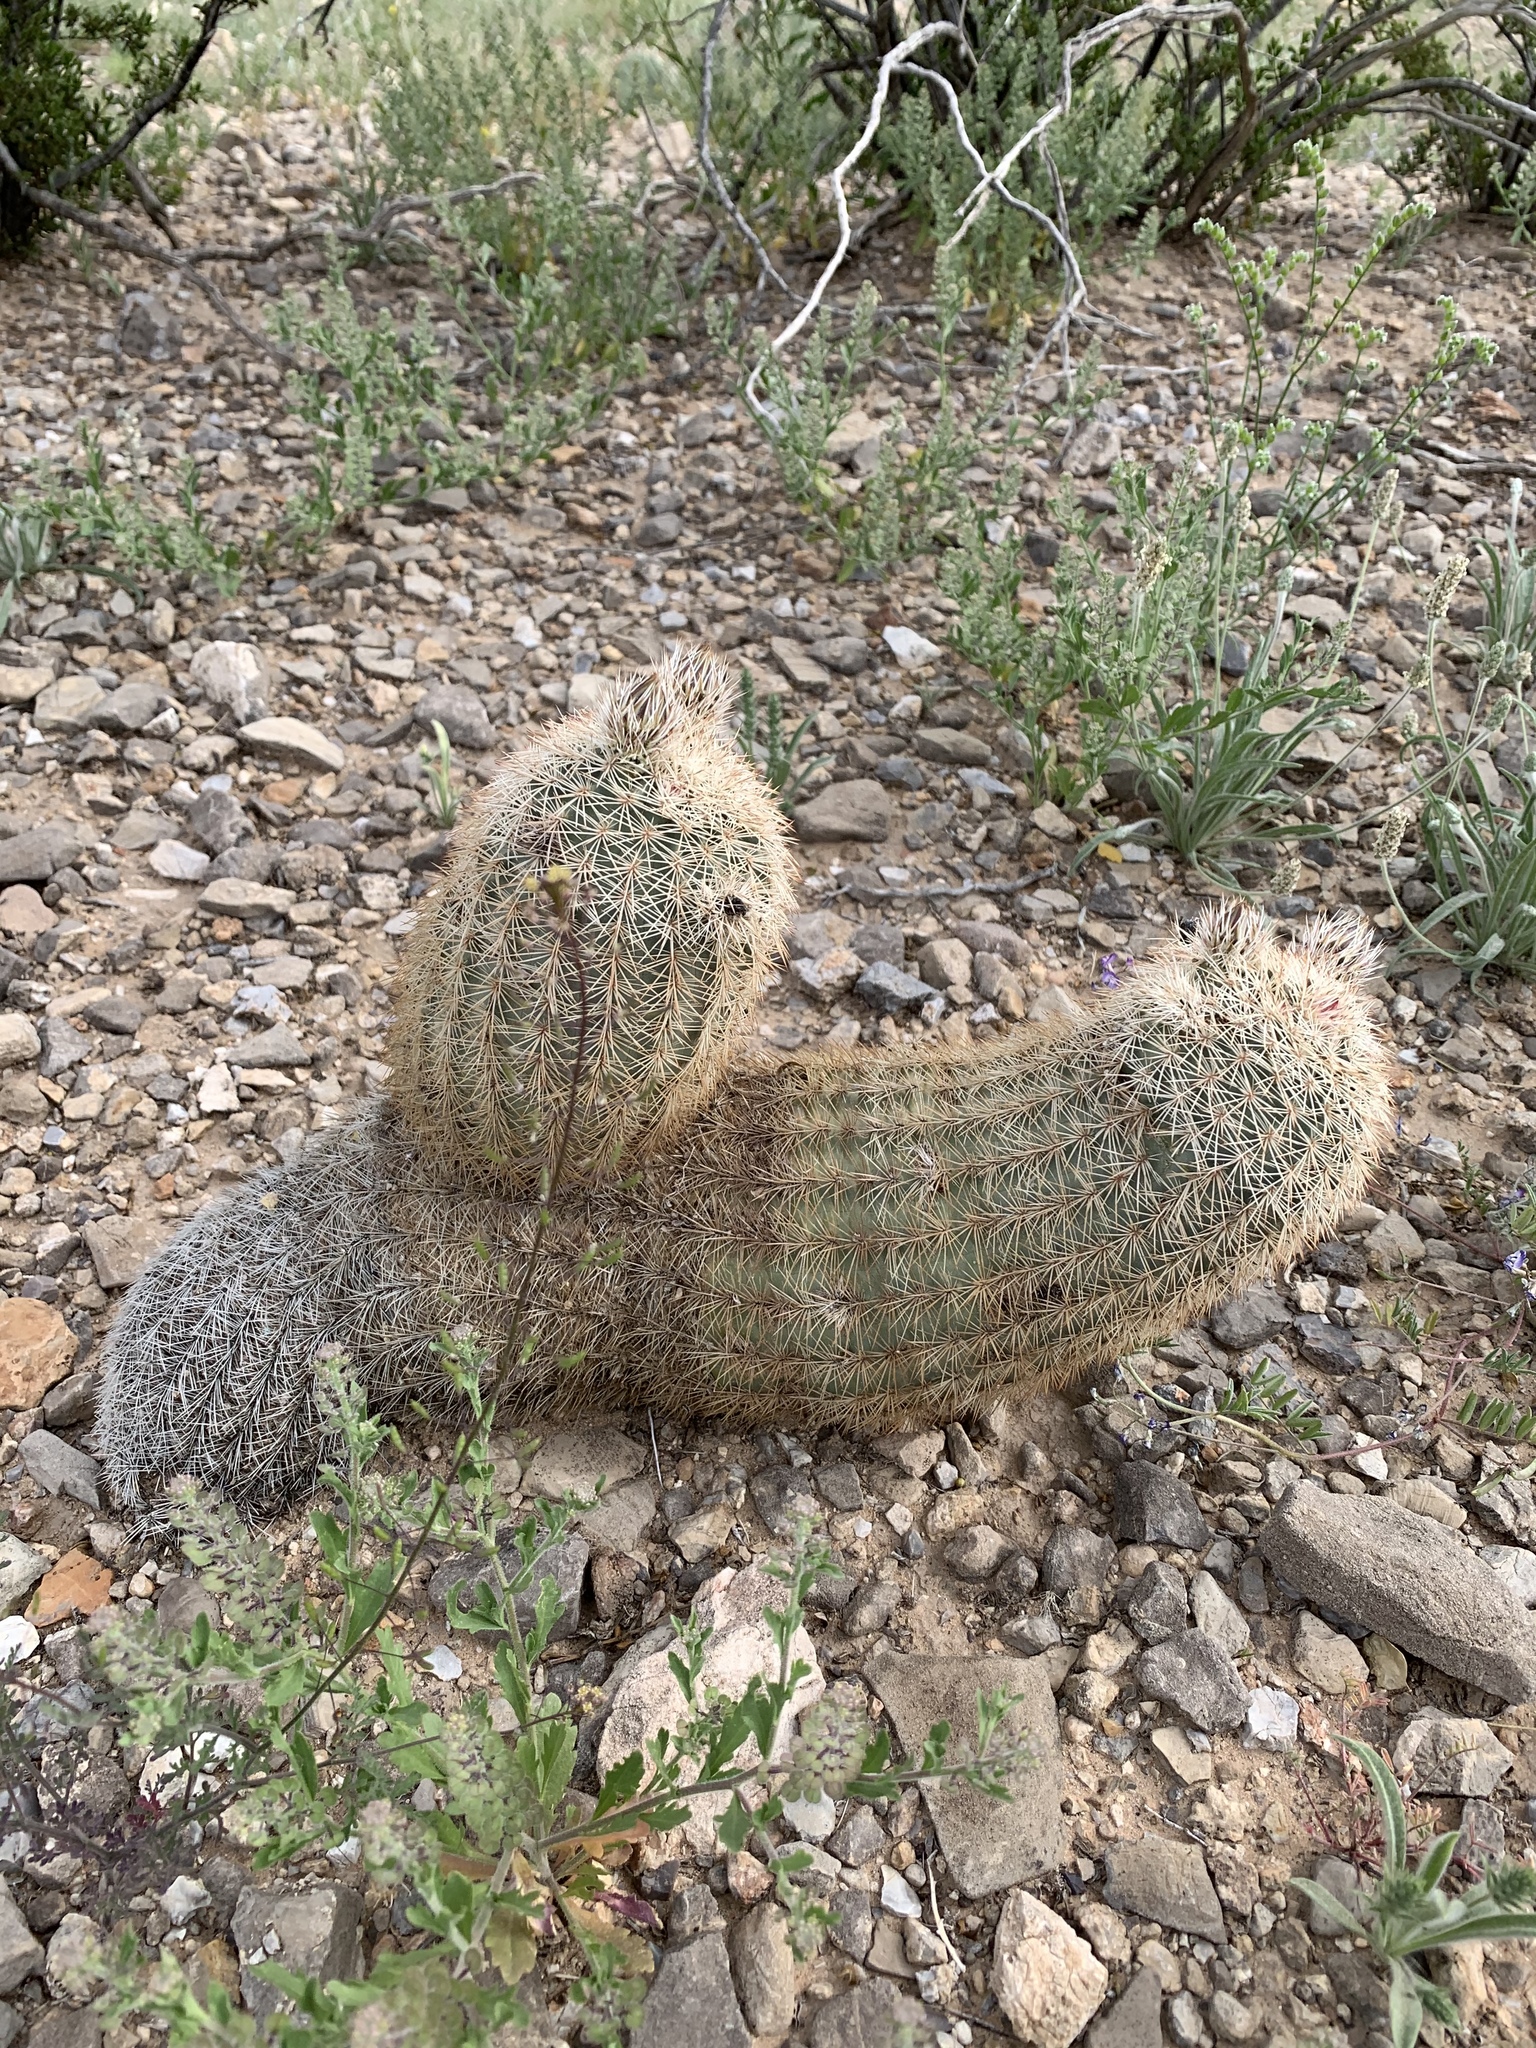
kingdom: Plantae
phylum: Tracheophyta
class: Magnoliopsida
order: Caryophyllales
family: Cactaceae
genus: Echinocereus
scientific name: Echinocereus dasyacanthus
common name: Spiny hedgehog cactus
